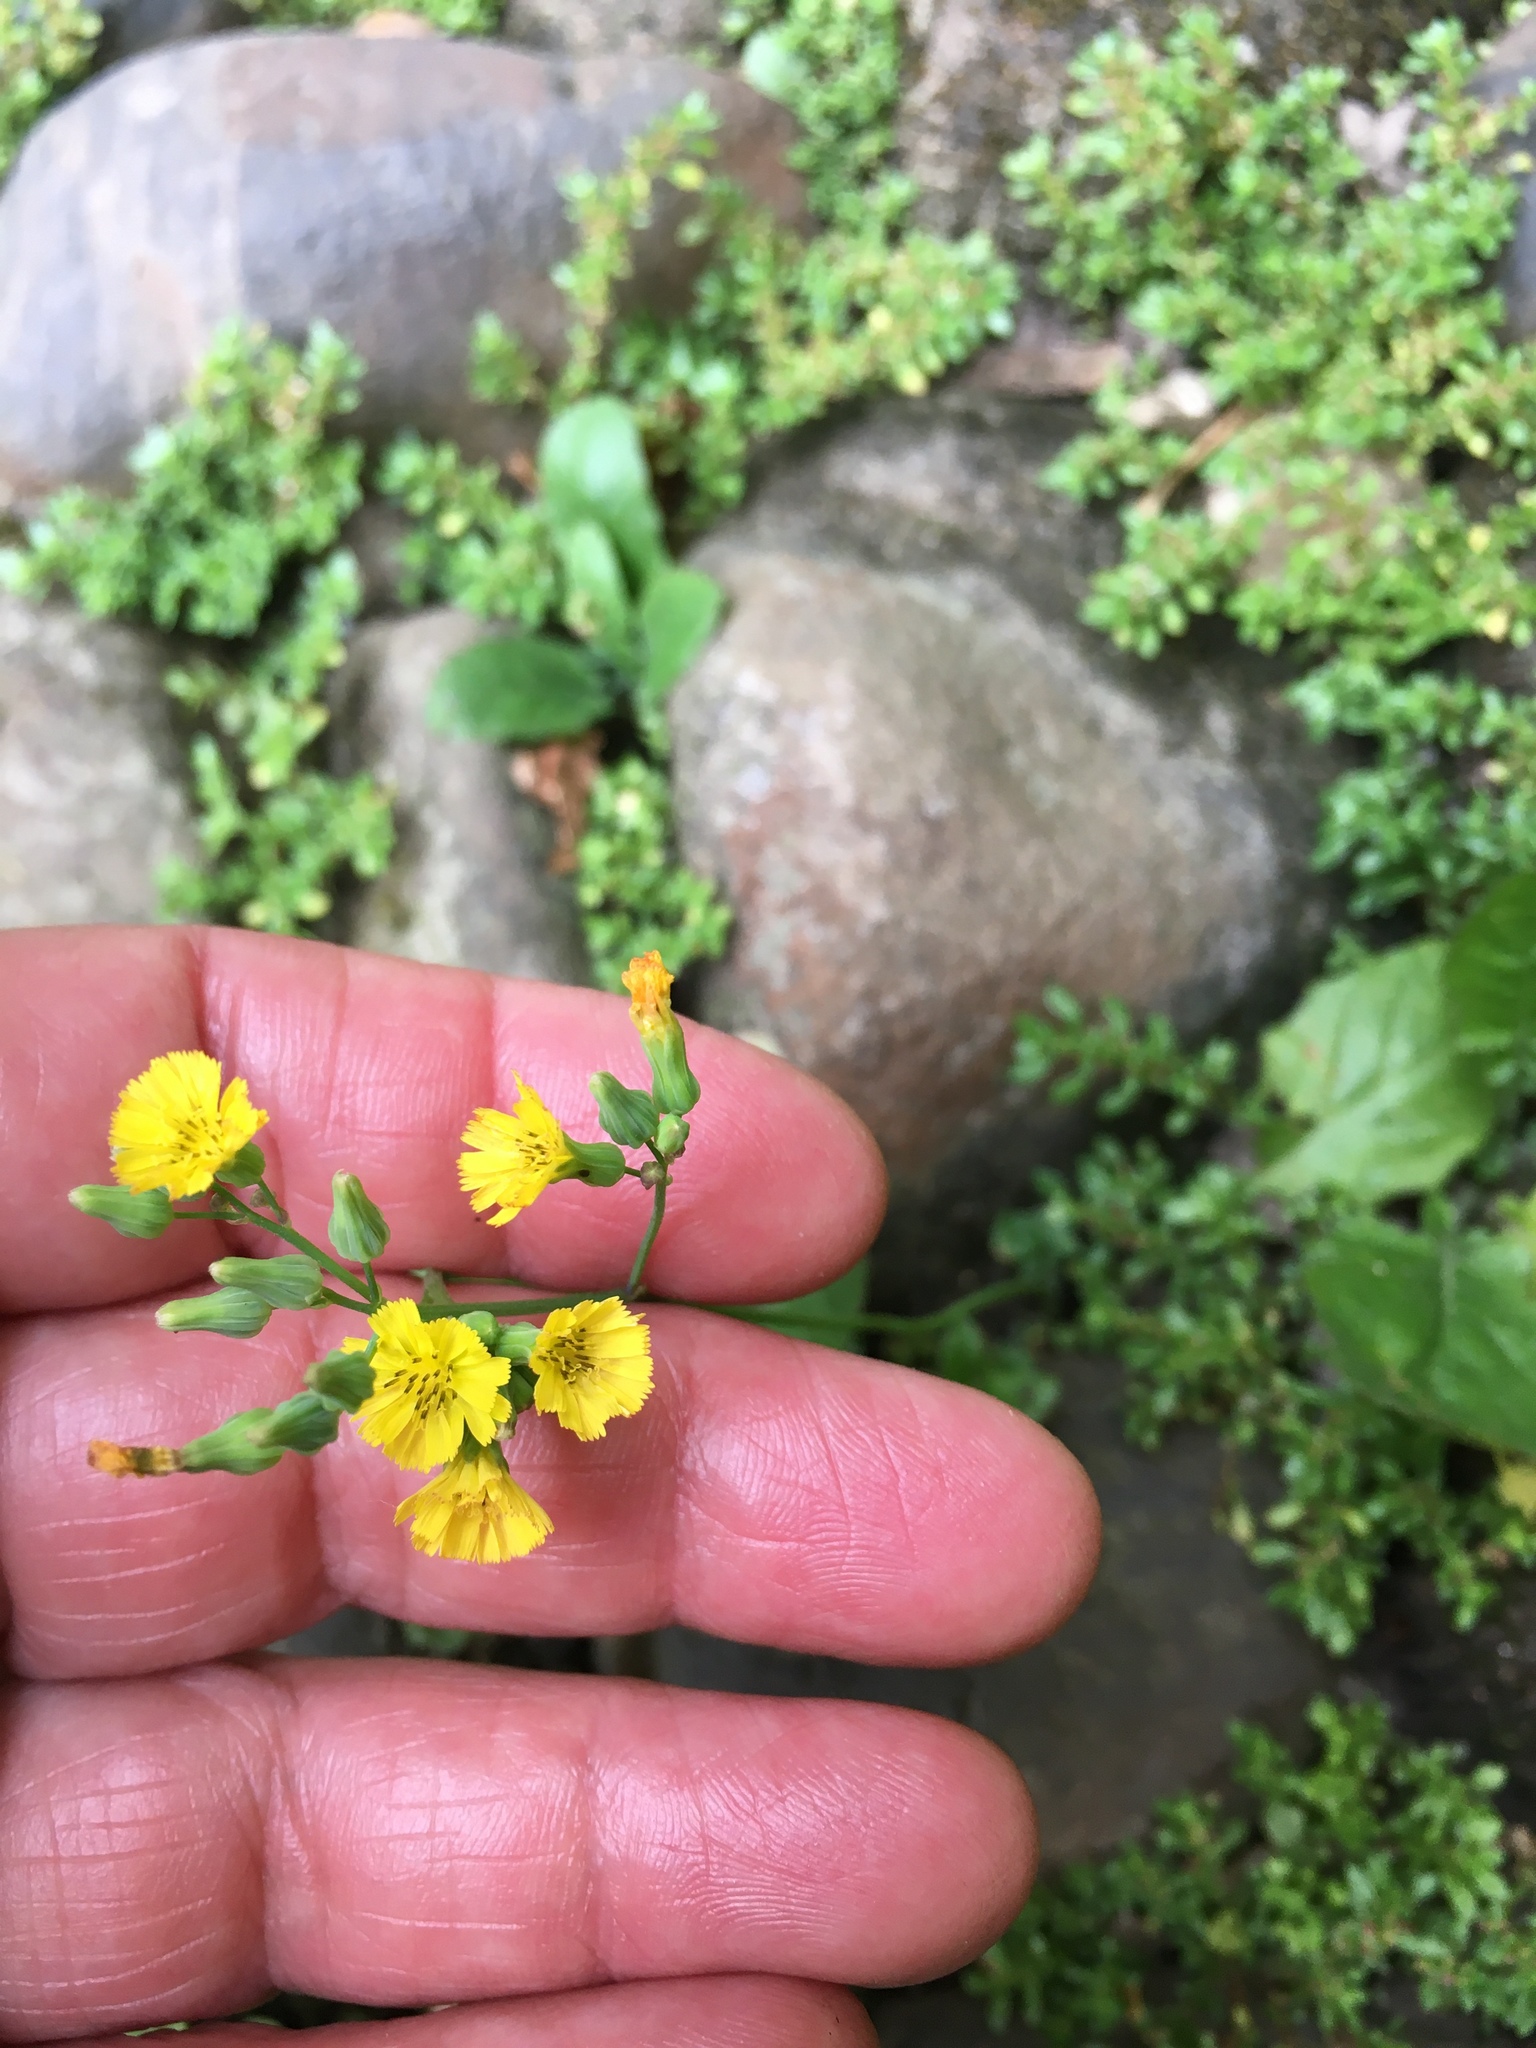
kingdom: Plantae
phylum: Tracheophyta
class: Magnoliopsida
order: Asterales
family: Asteraceae
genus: Youngia
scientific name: Youngia japonica
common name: Oriental false hawksbeard
